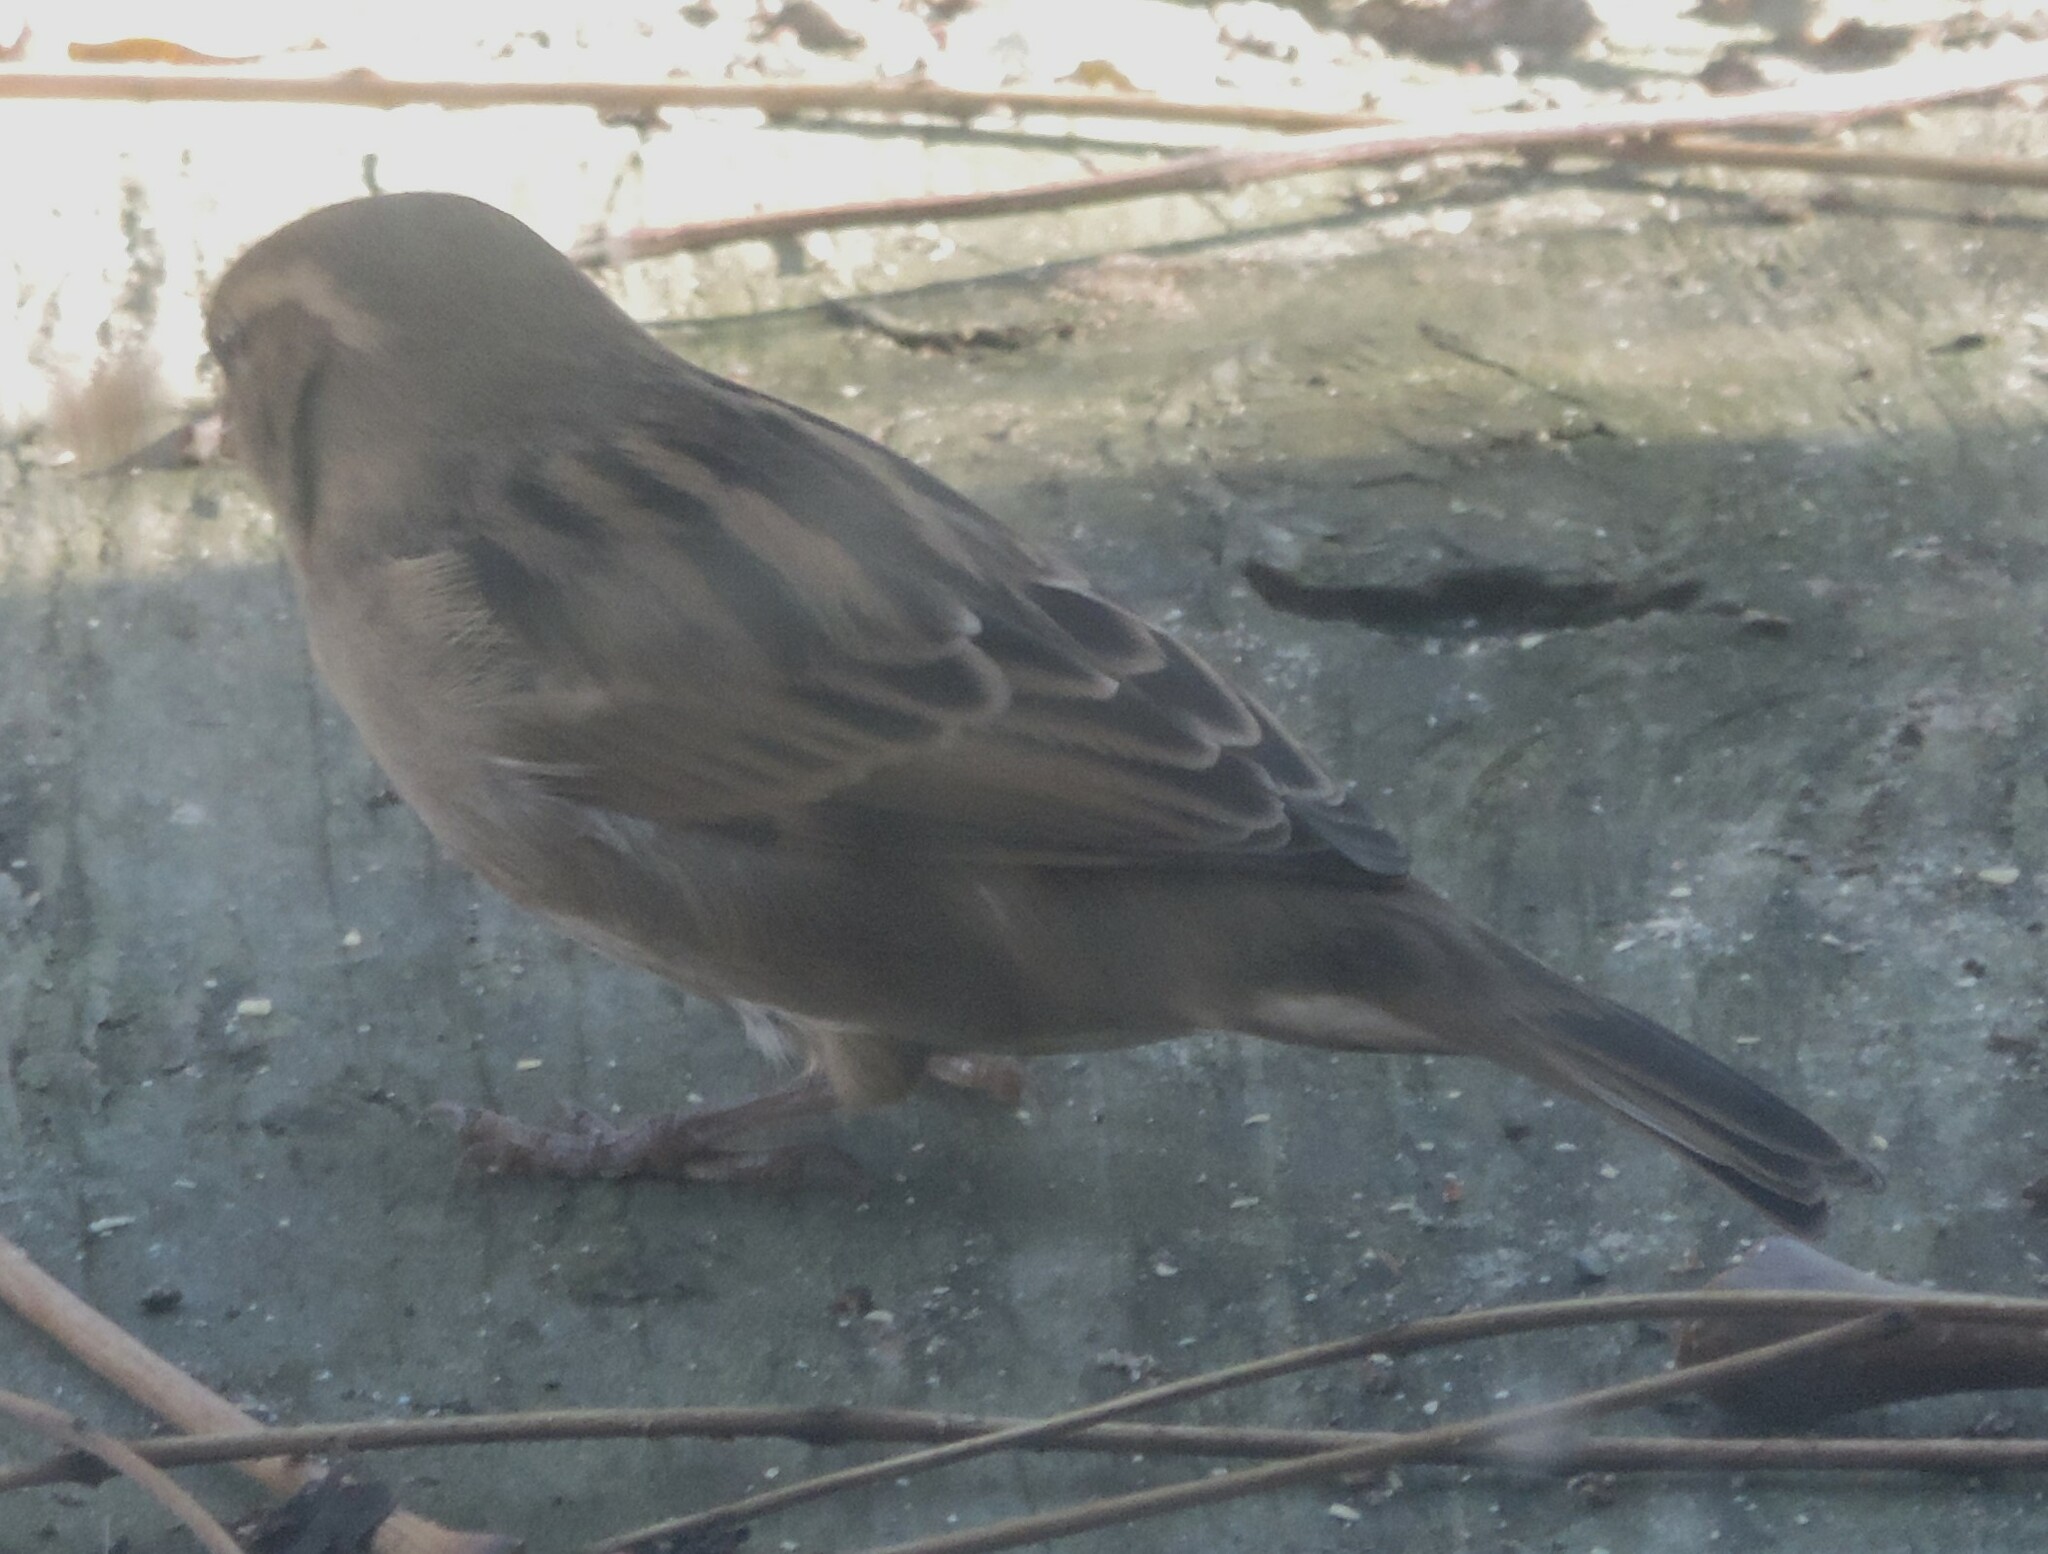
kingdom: Animalia
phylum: Chordata
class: Aves
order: Passeriformes
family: Passeridae
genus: Passer
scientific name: Passer domesticus
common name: House sparrow
